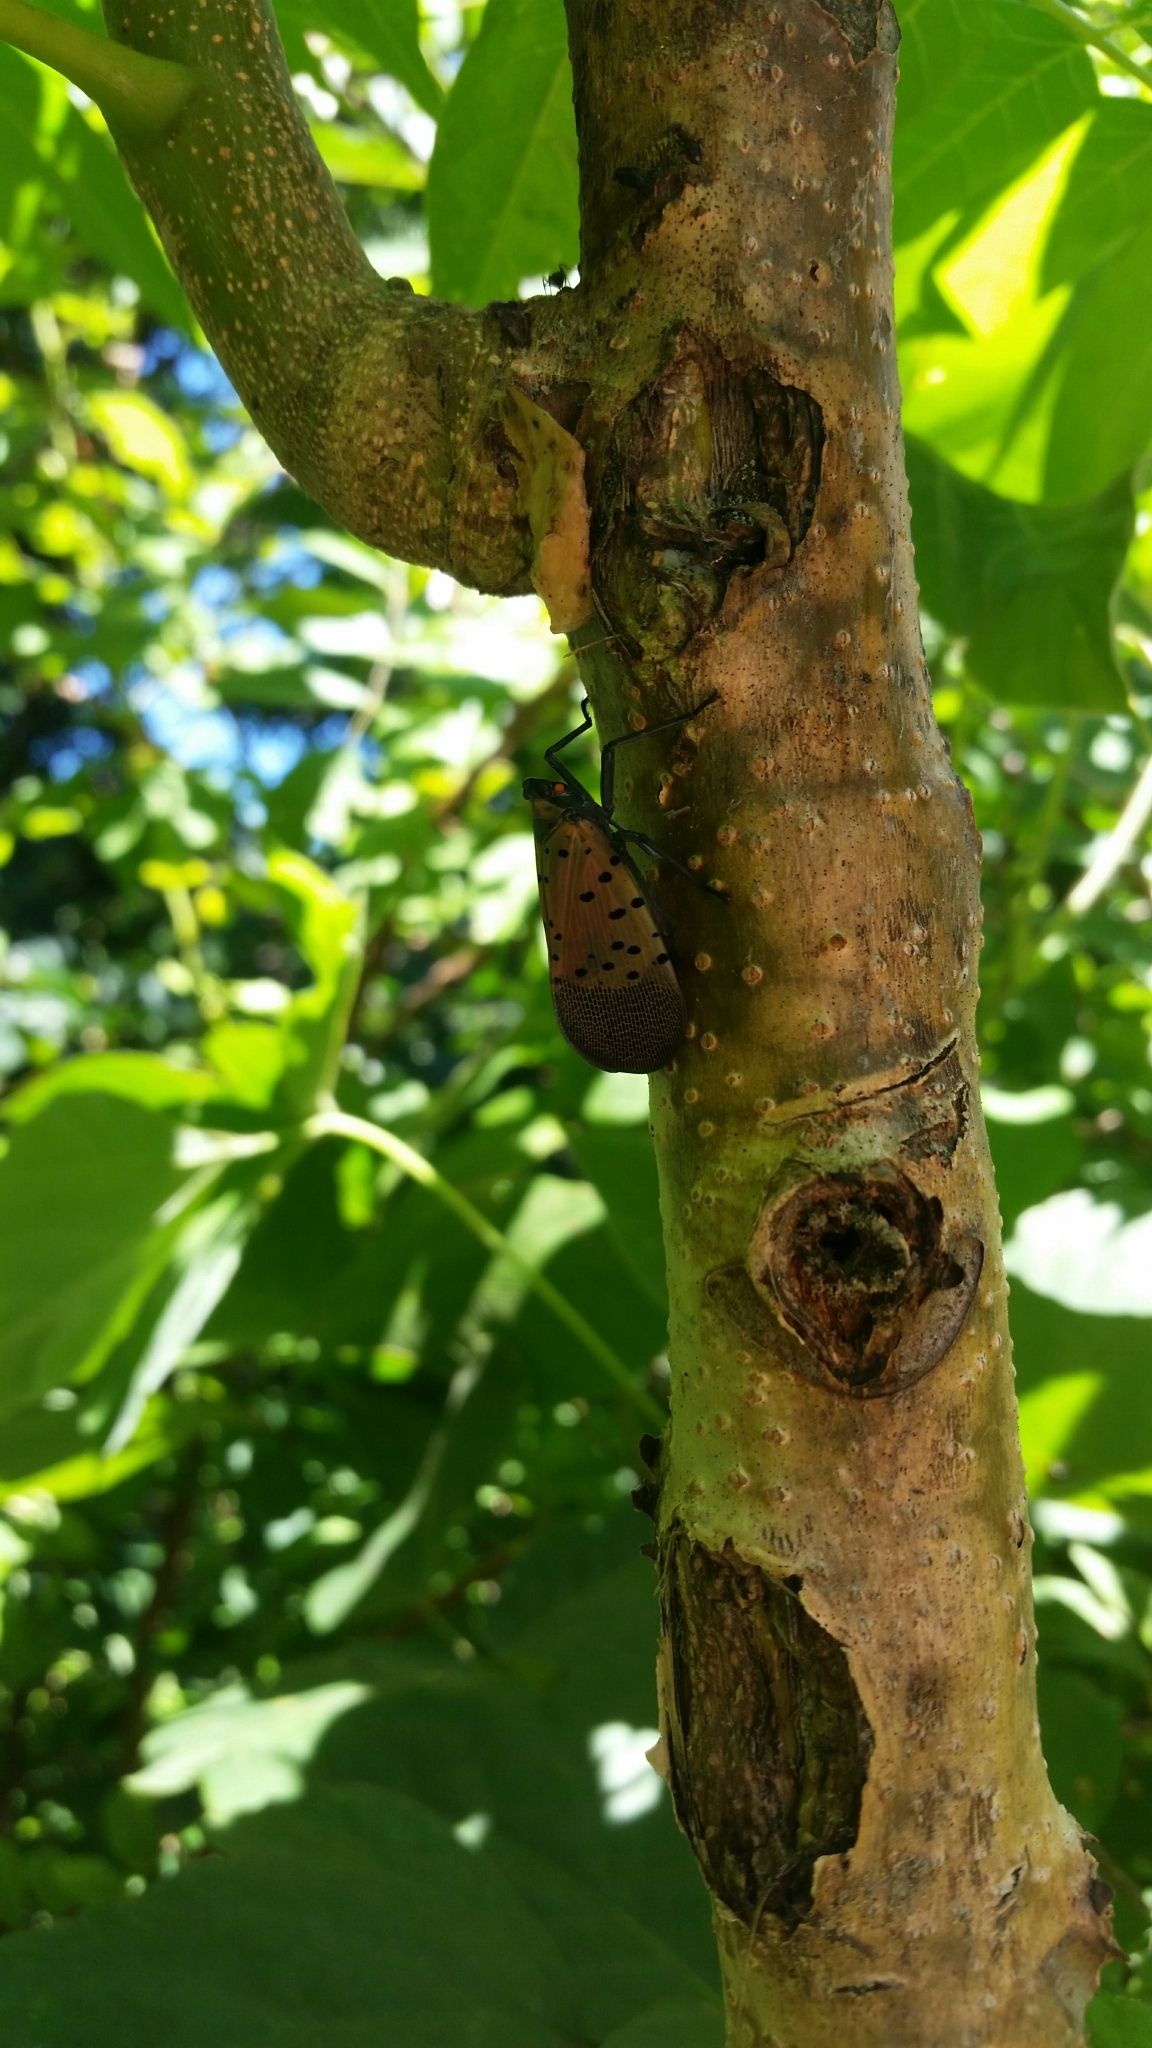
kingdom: Animalia
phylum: Arthropoda
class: Insecta
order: Hemiptera
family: Fulgoridae
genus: Lycorma
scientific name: Lycorma delicatula
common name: Spotted lanternfly
